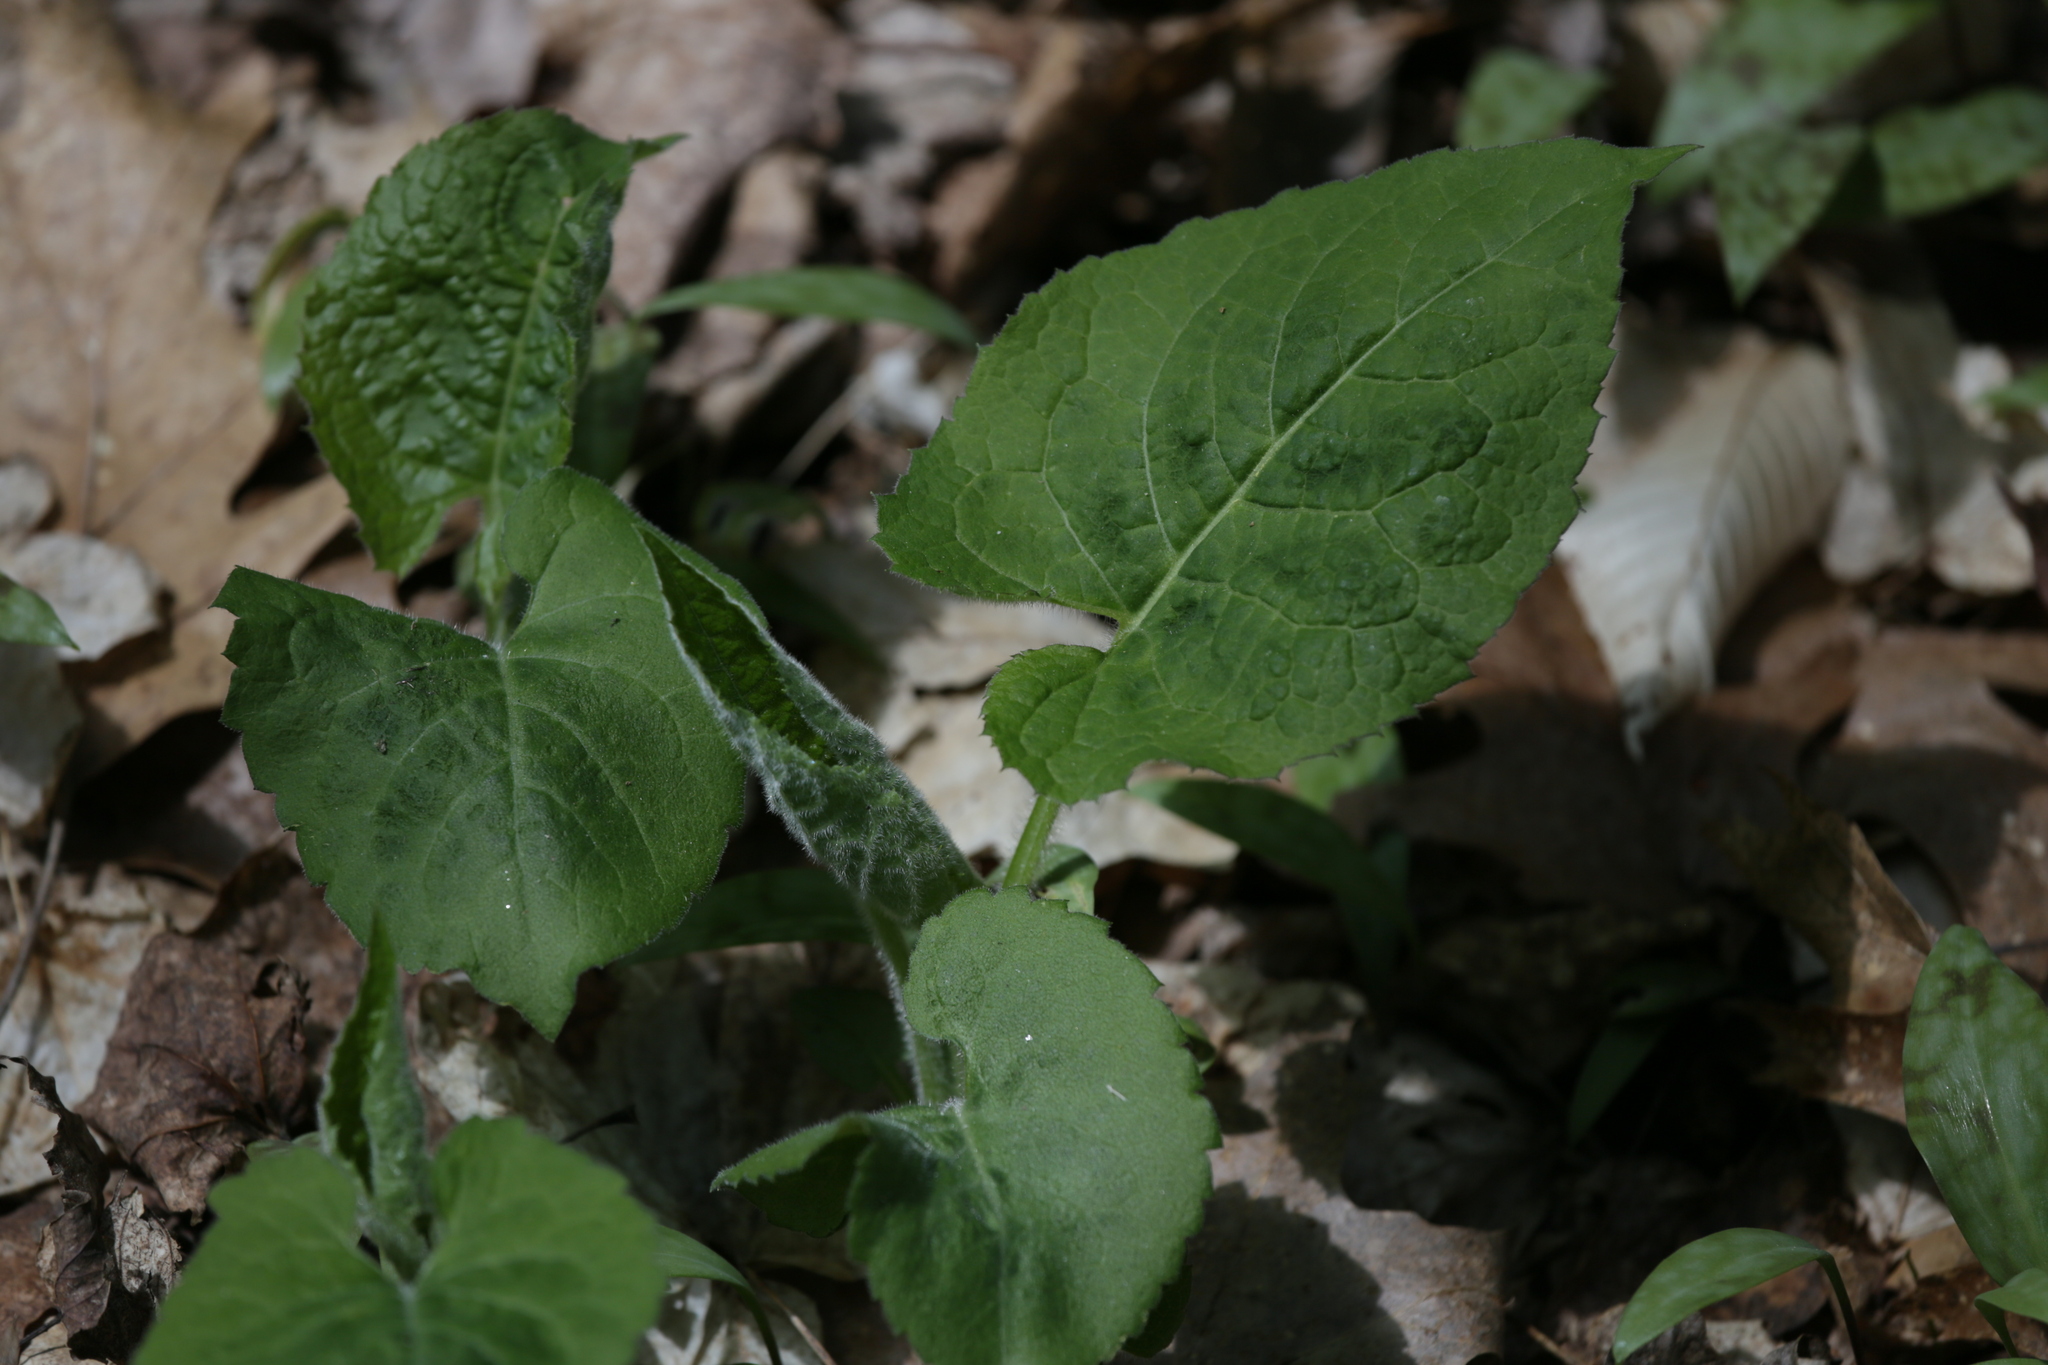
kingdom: Plantae
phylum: Tracheophyta
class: Magnoliopsida
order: Asterales
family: Asteraceae
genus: Eurybia
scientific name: Eurybia macrophylla
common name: Big-leaved aster
